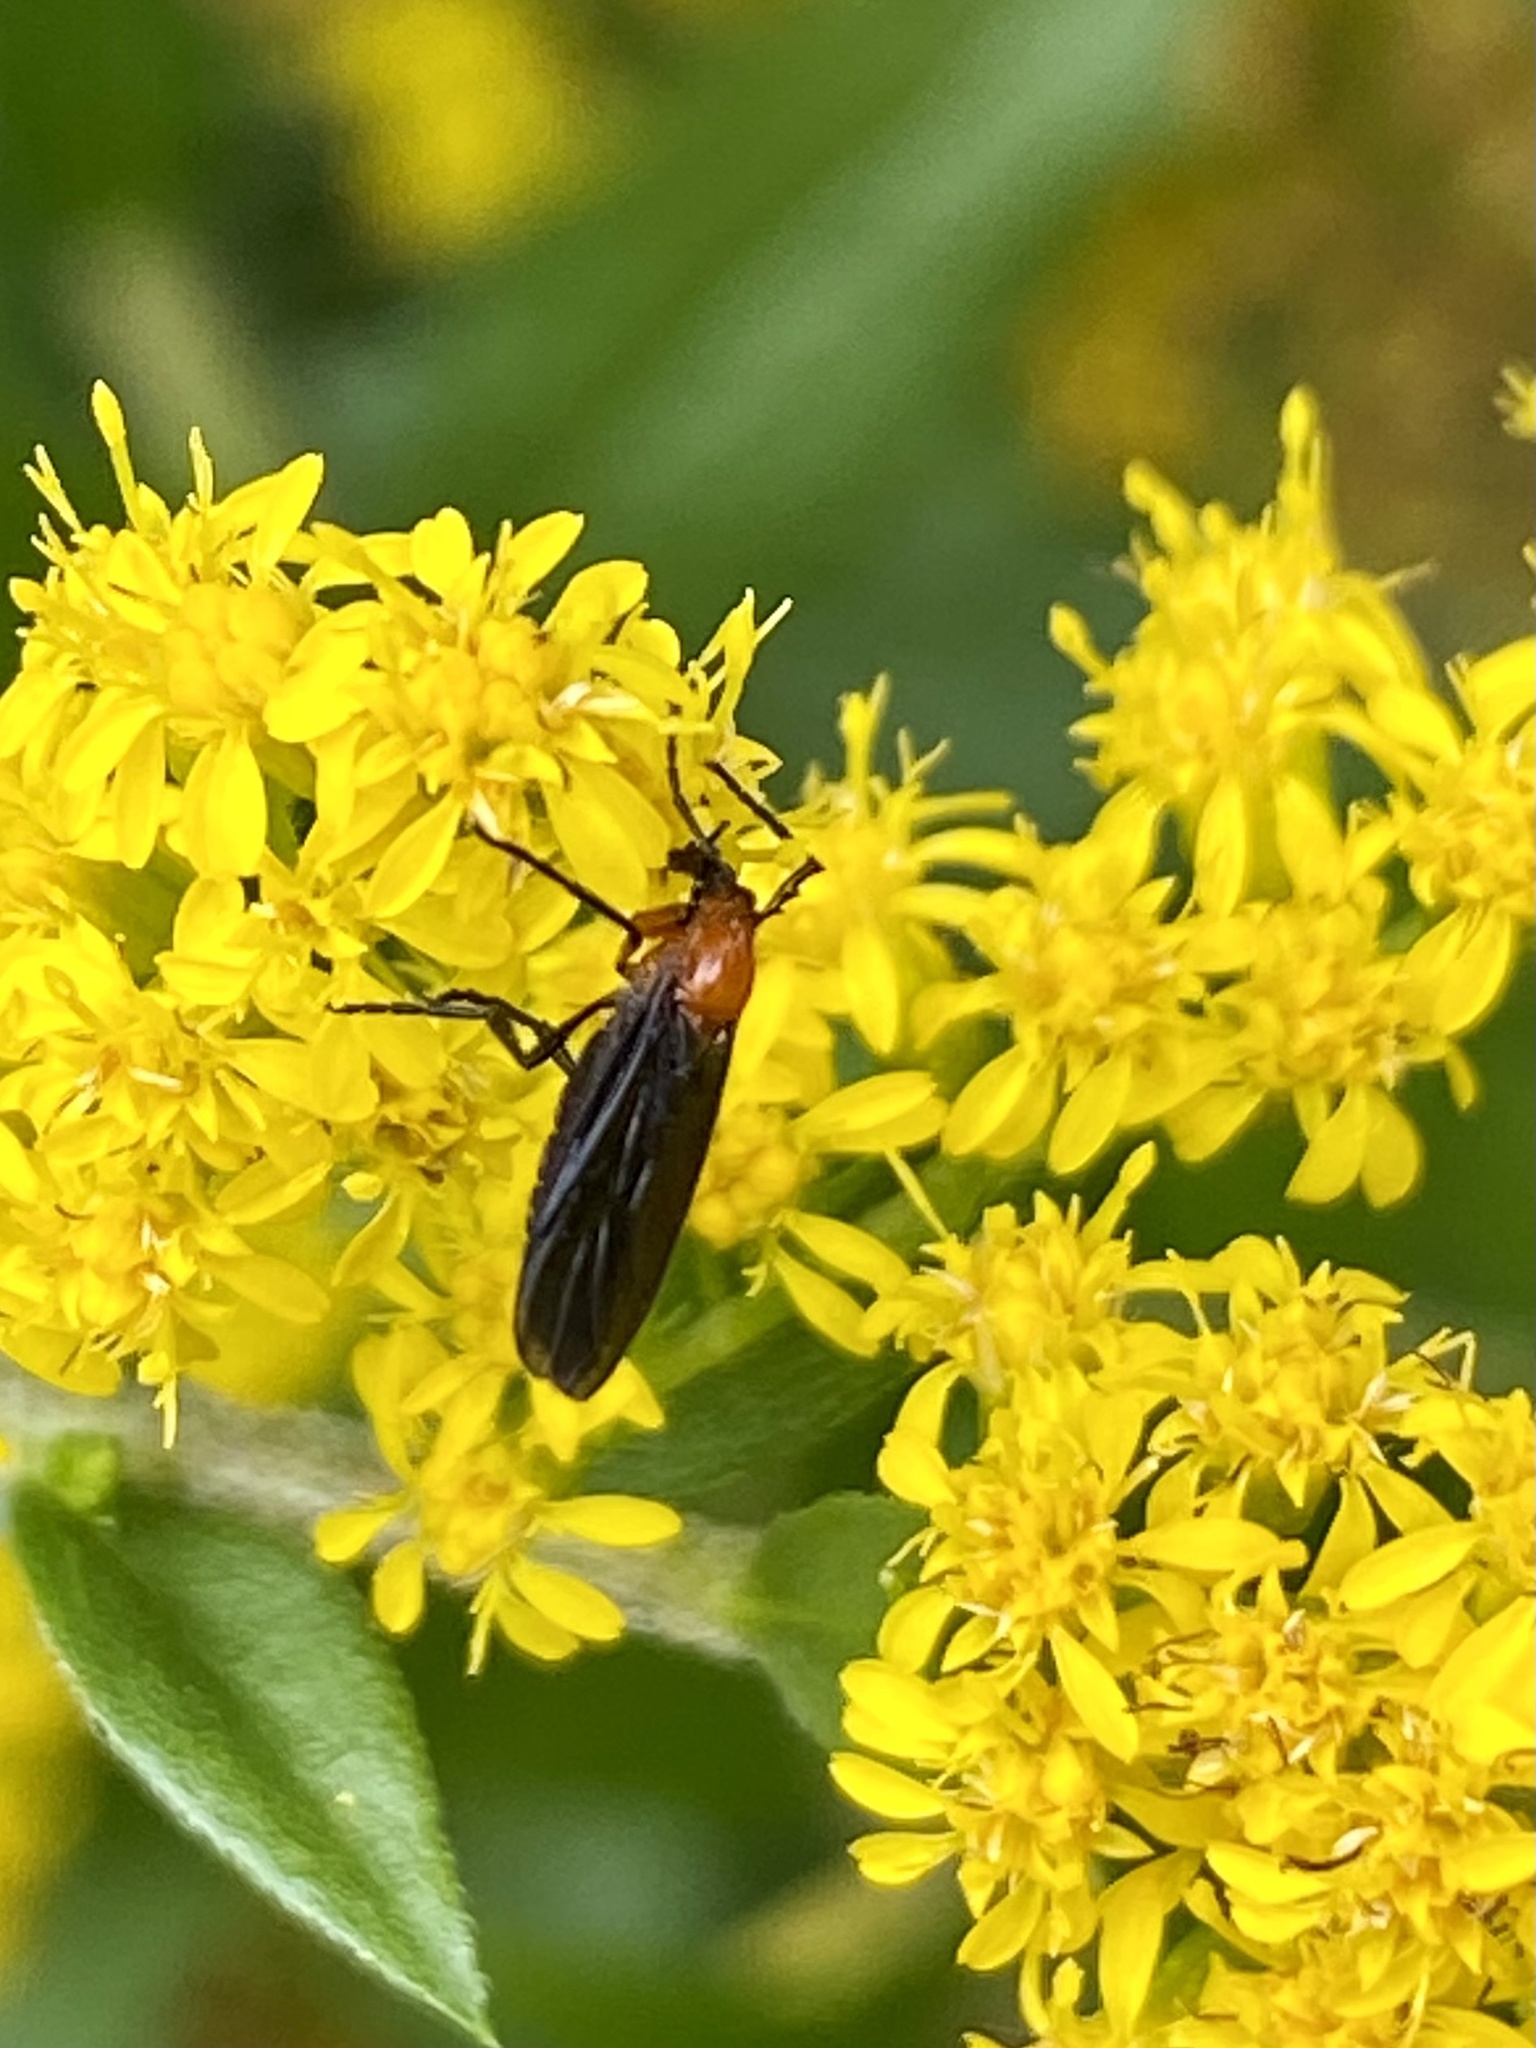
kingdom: Animalia
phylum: Arthropoda
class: Insecta
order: Diptera
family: Bibionidae
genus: Dilophus
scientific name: Dilophus spinipes
